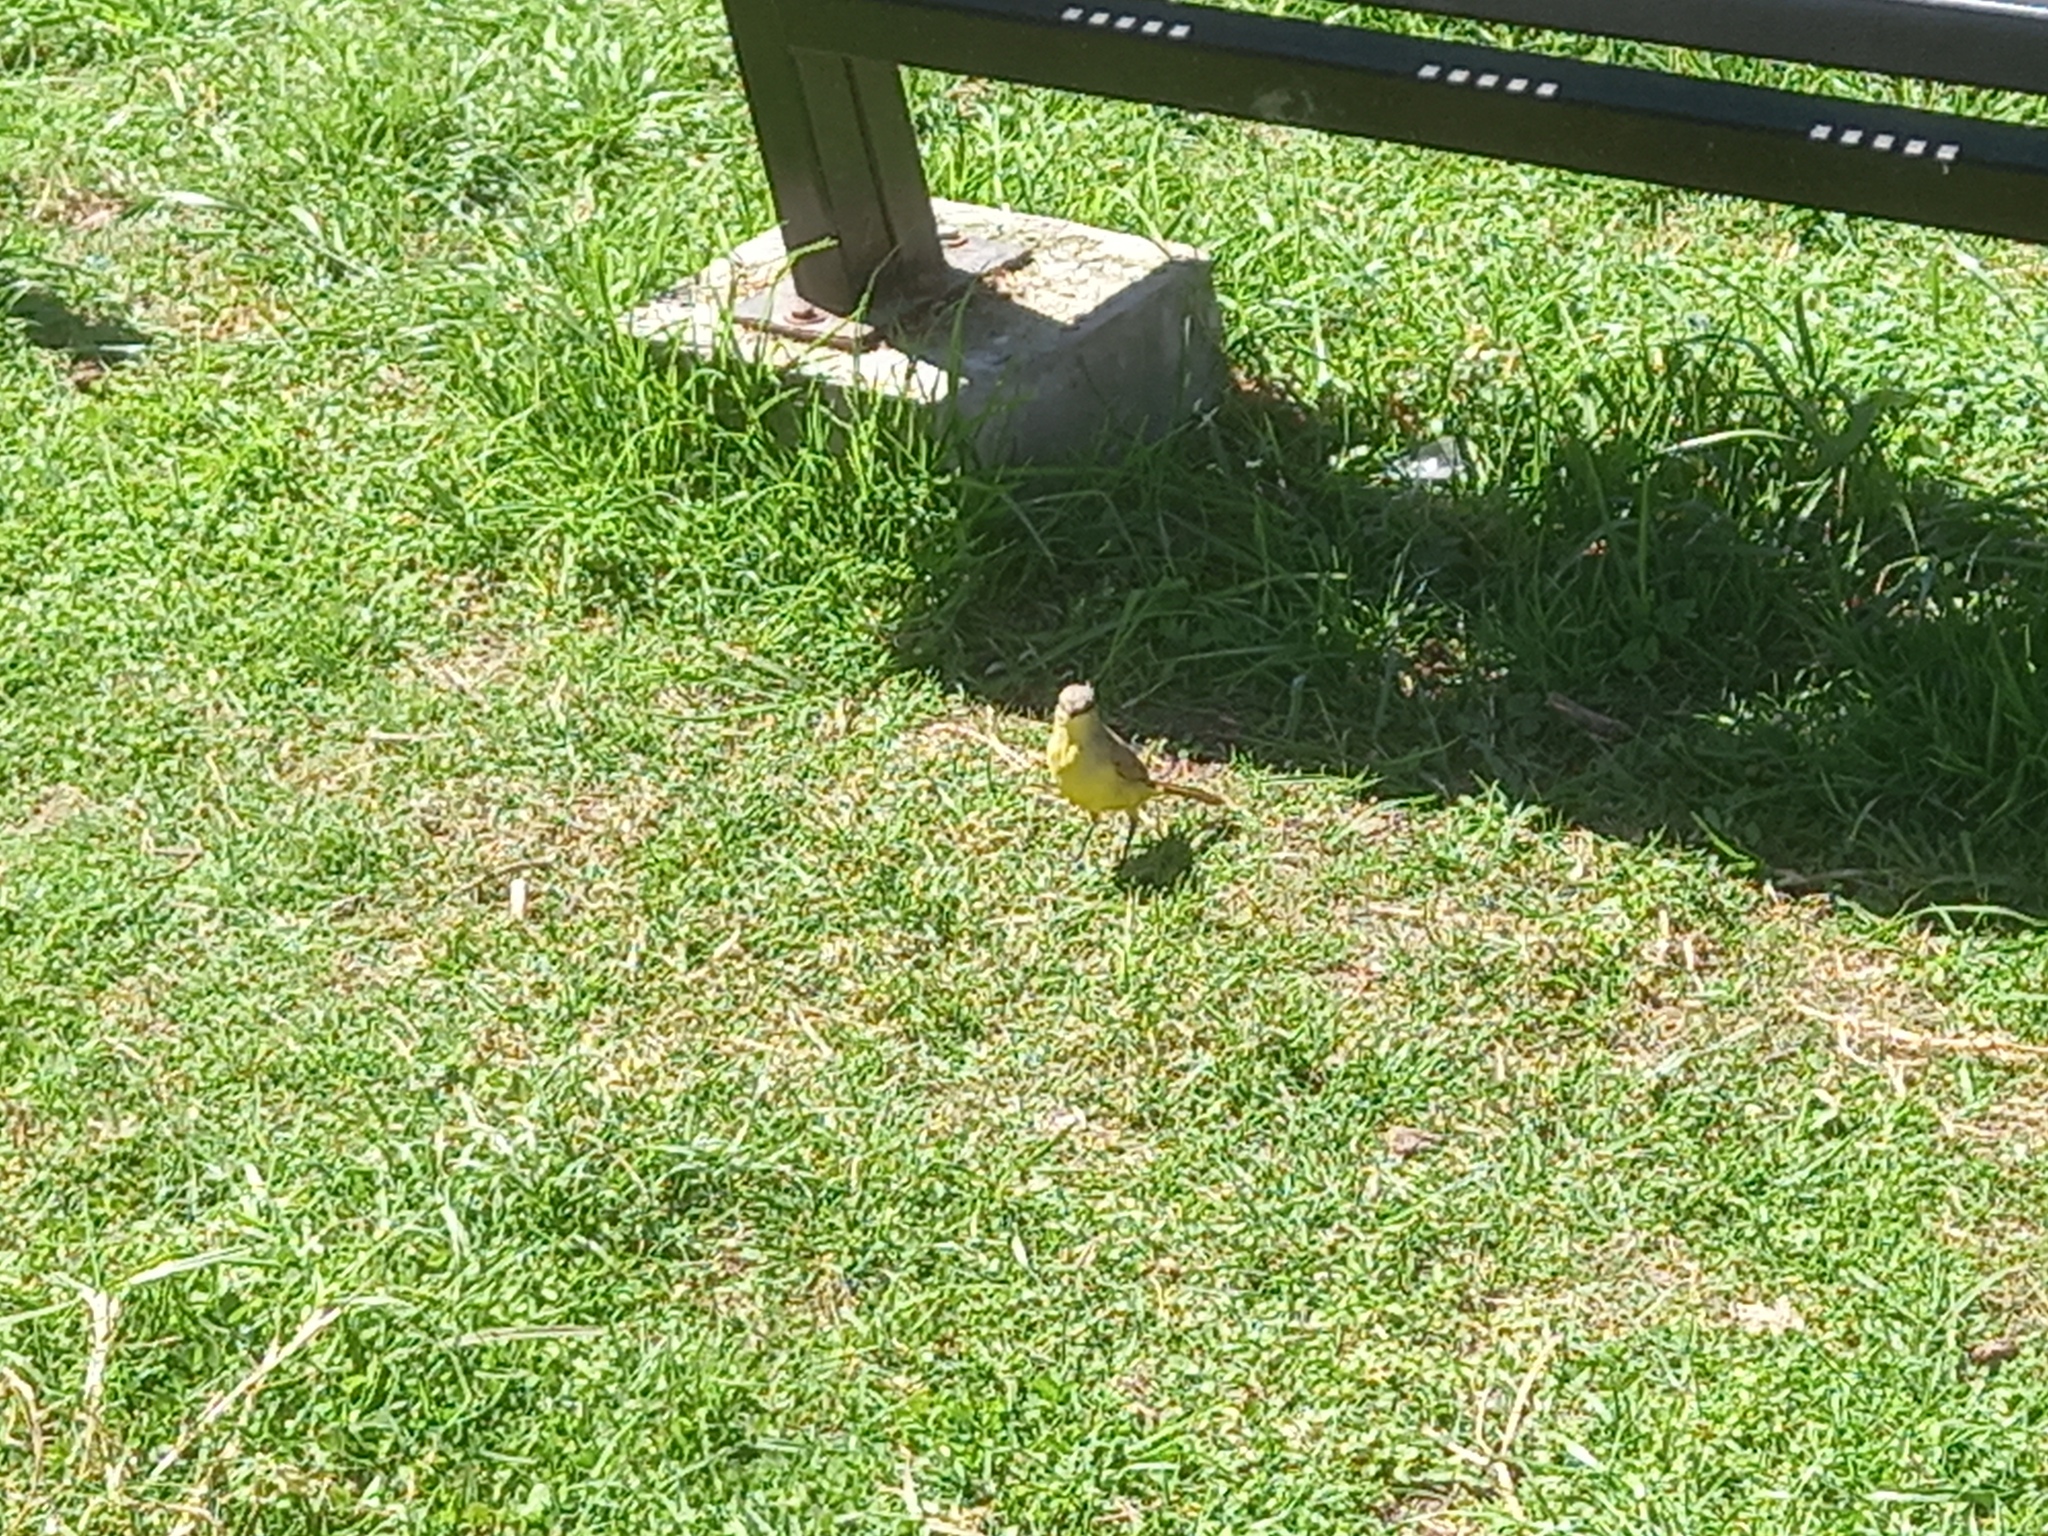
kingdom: Animalia
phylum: Chordata
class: Aves
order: Passeriformes
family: Tyrannidae
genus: Machetornis
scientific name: Machetornis rixosa
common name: Cattle tyrant
